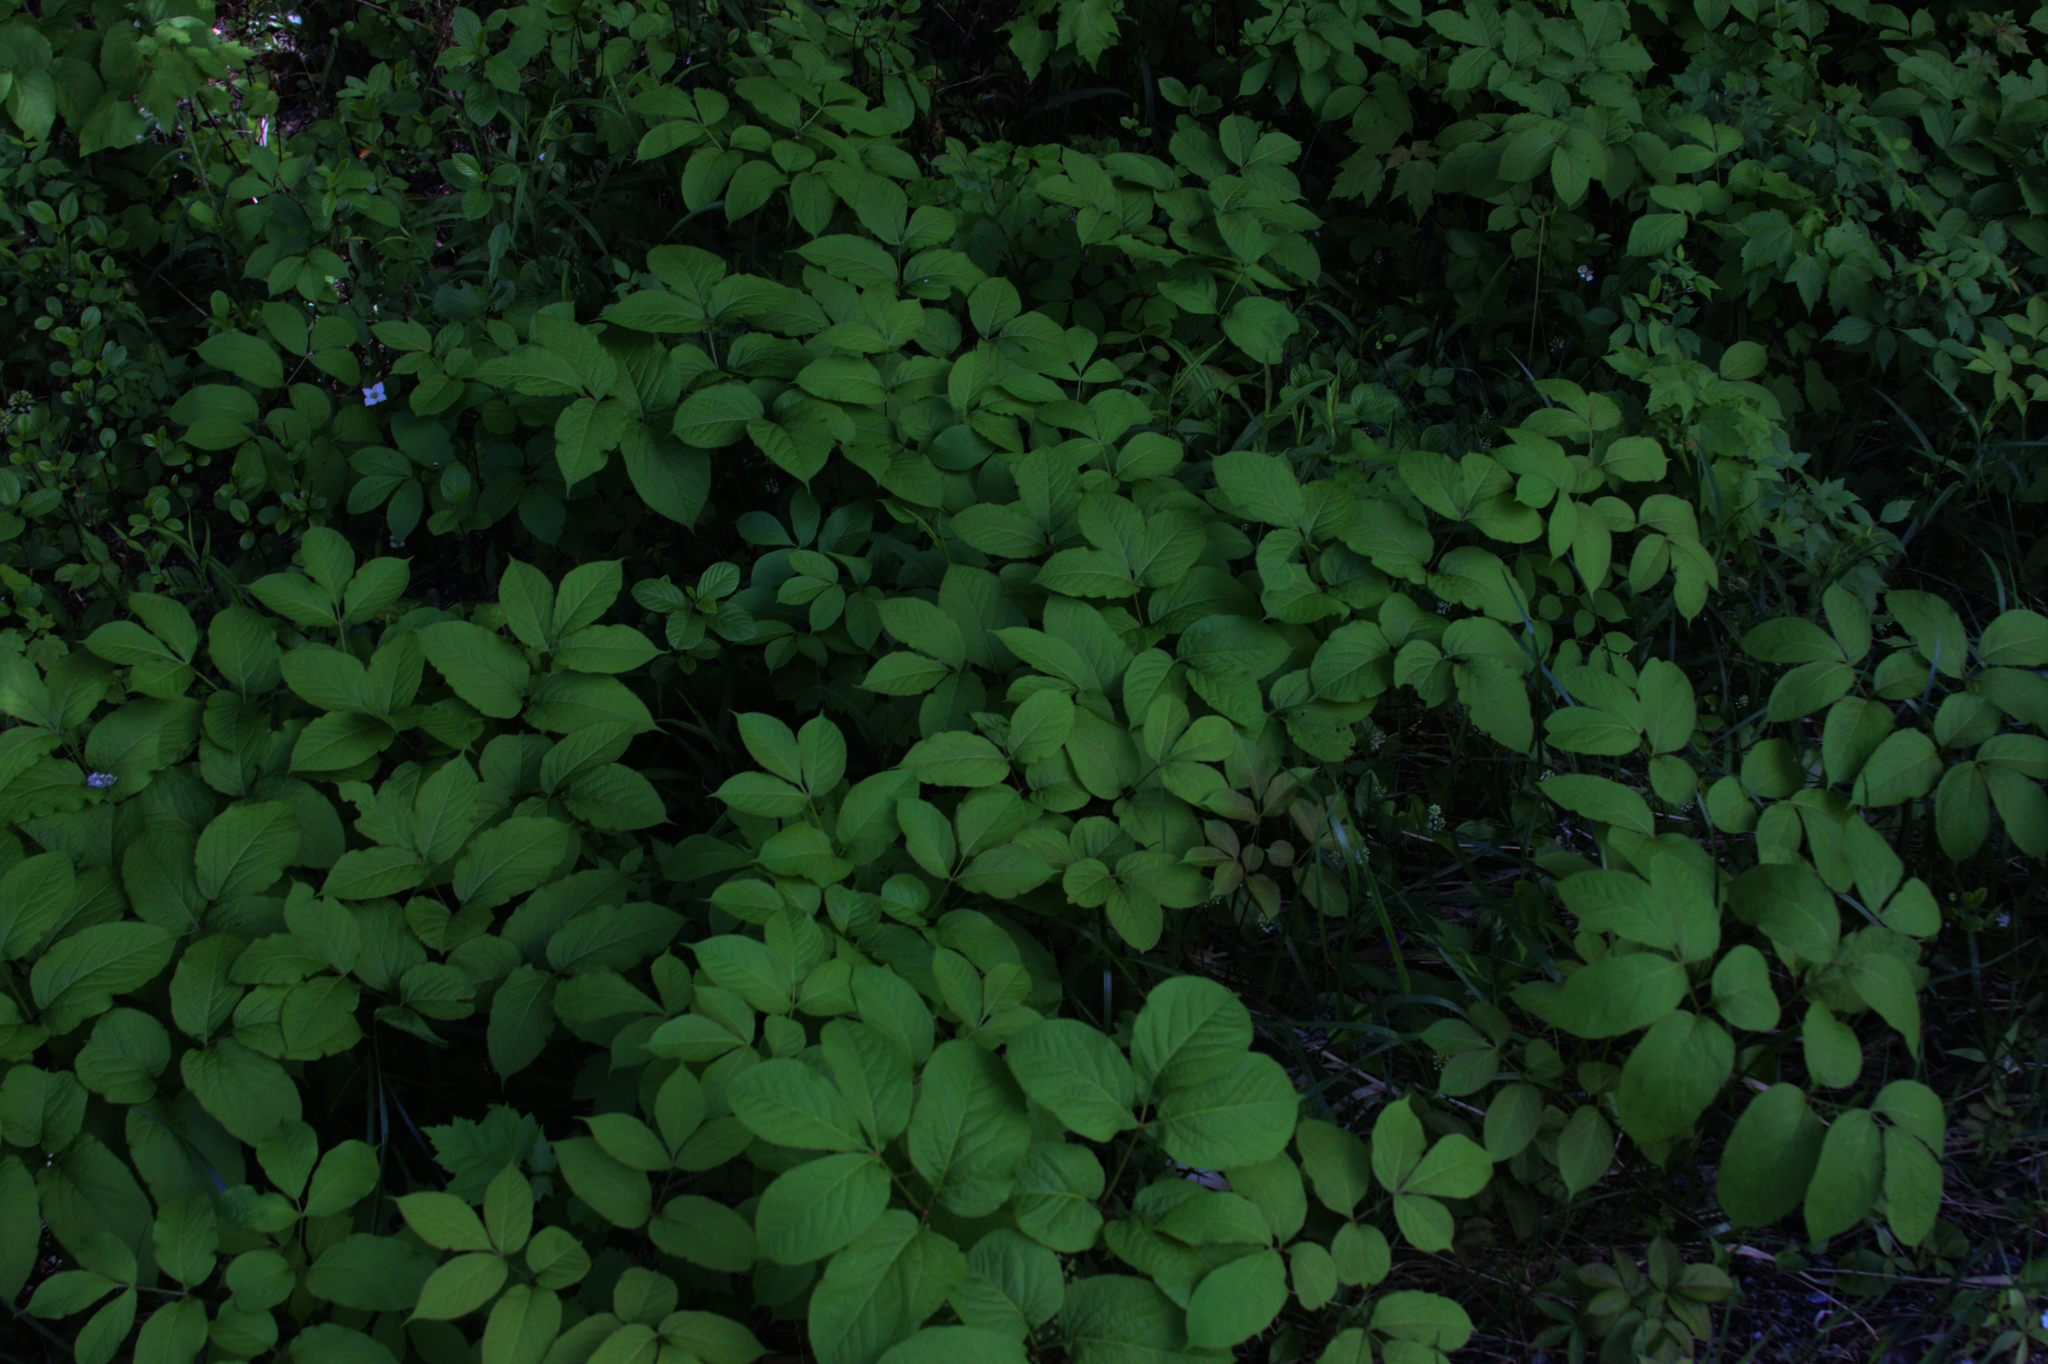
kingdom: Plantae
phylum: Tracheophyta
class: Magnoliopsida
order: Apiales
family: Araliaceae
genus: Aralia
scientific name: Aralia nudicaulis
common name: Wild sarsaparilla
